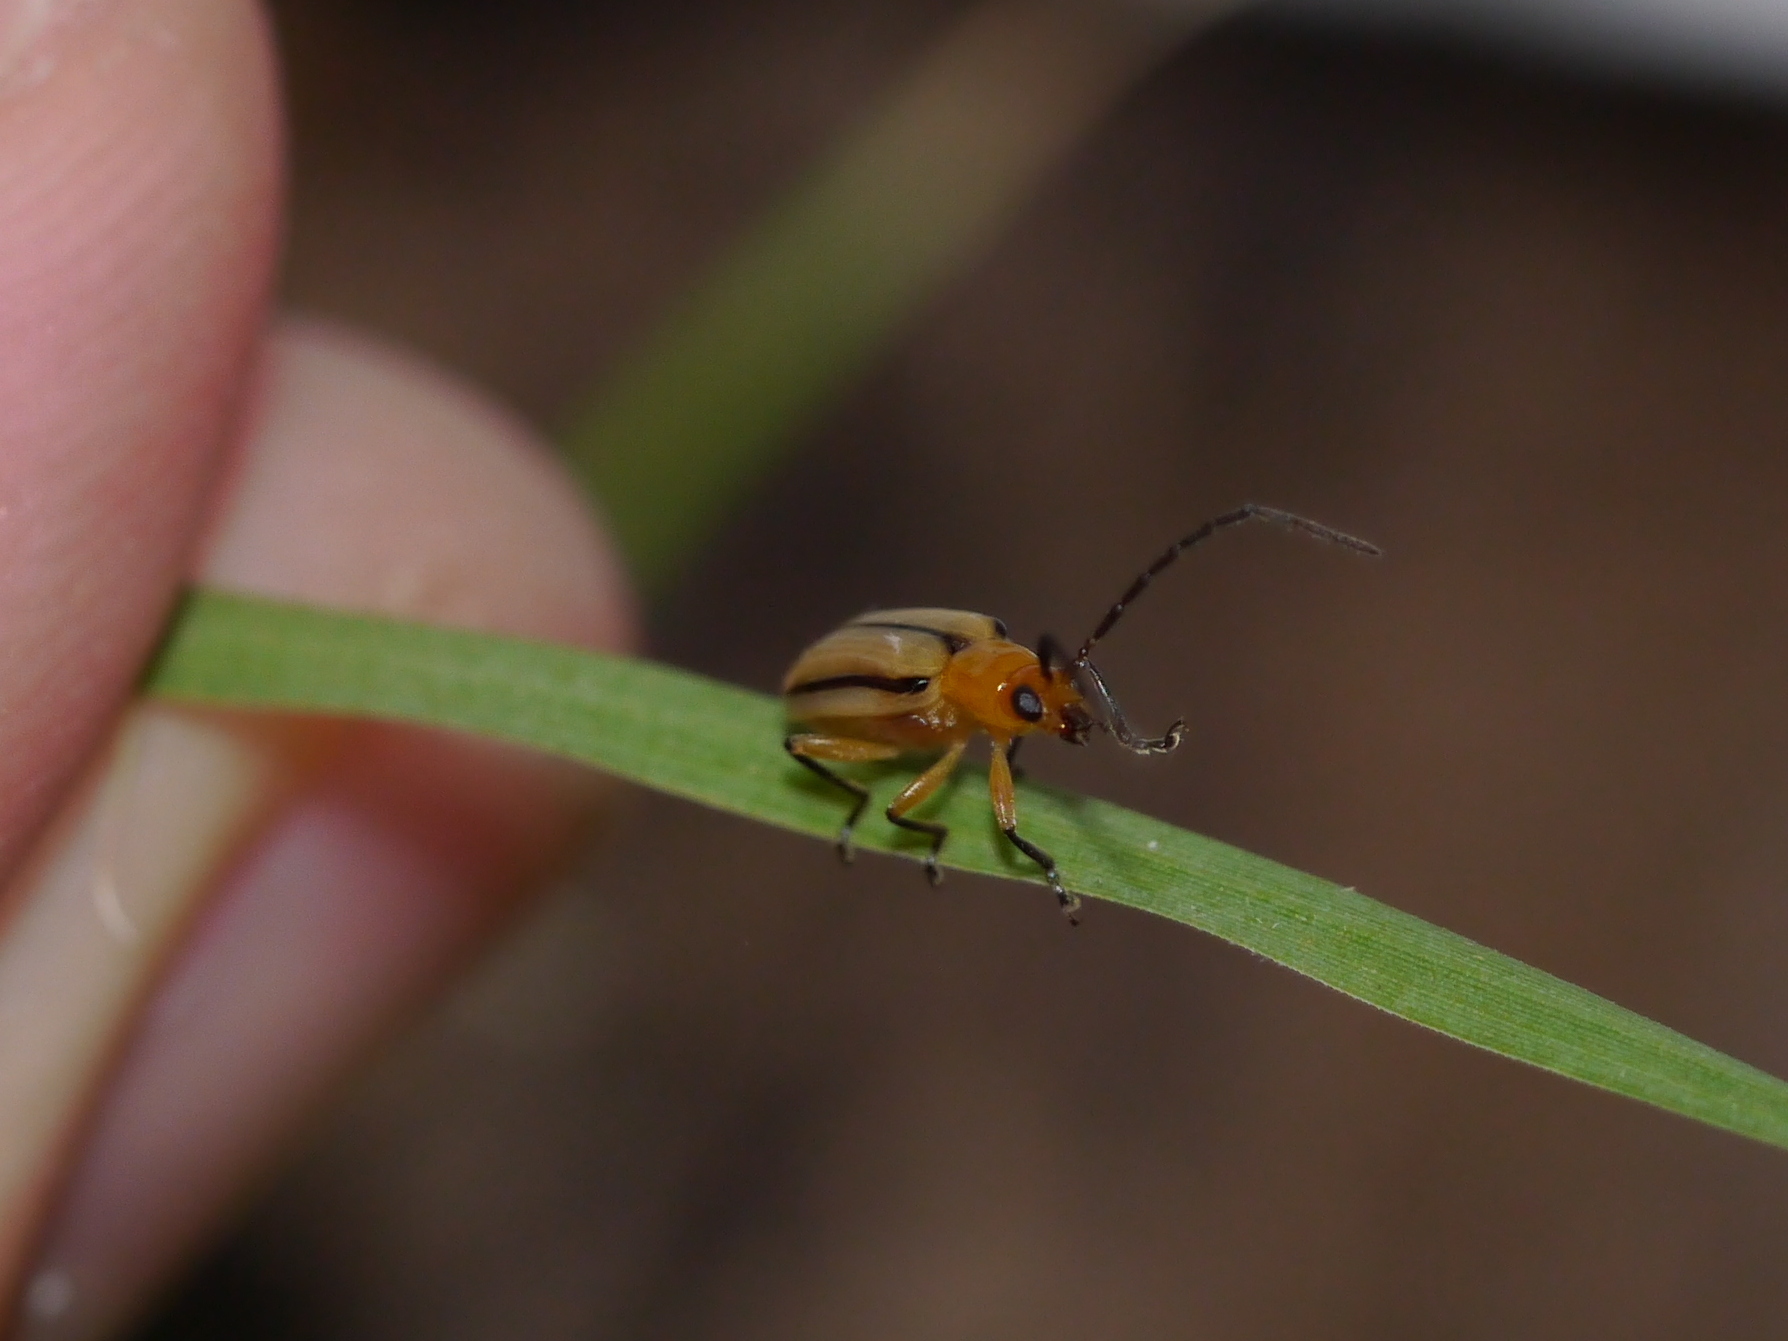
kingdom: Animalia
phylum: Arthropoda
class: Insecta
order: Coleoptera
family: Chrysomelidae
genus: Diabrotica
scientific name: Diabrotica longicornis
